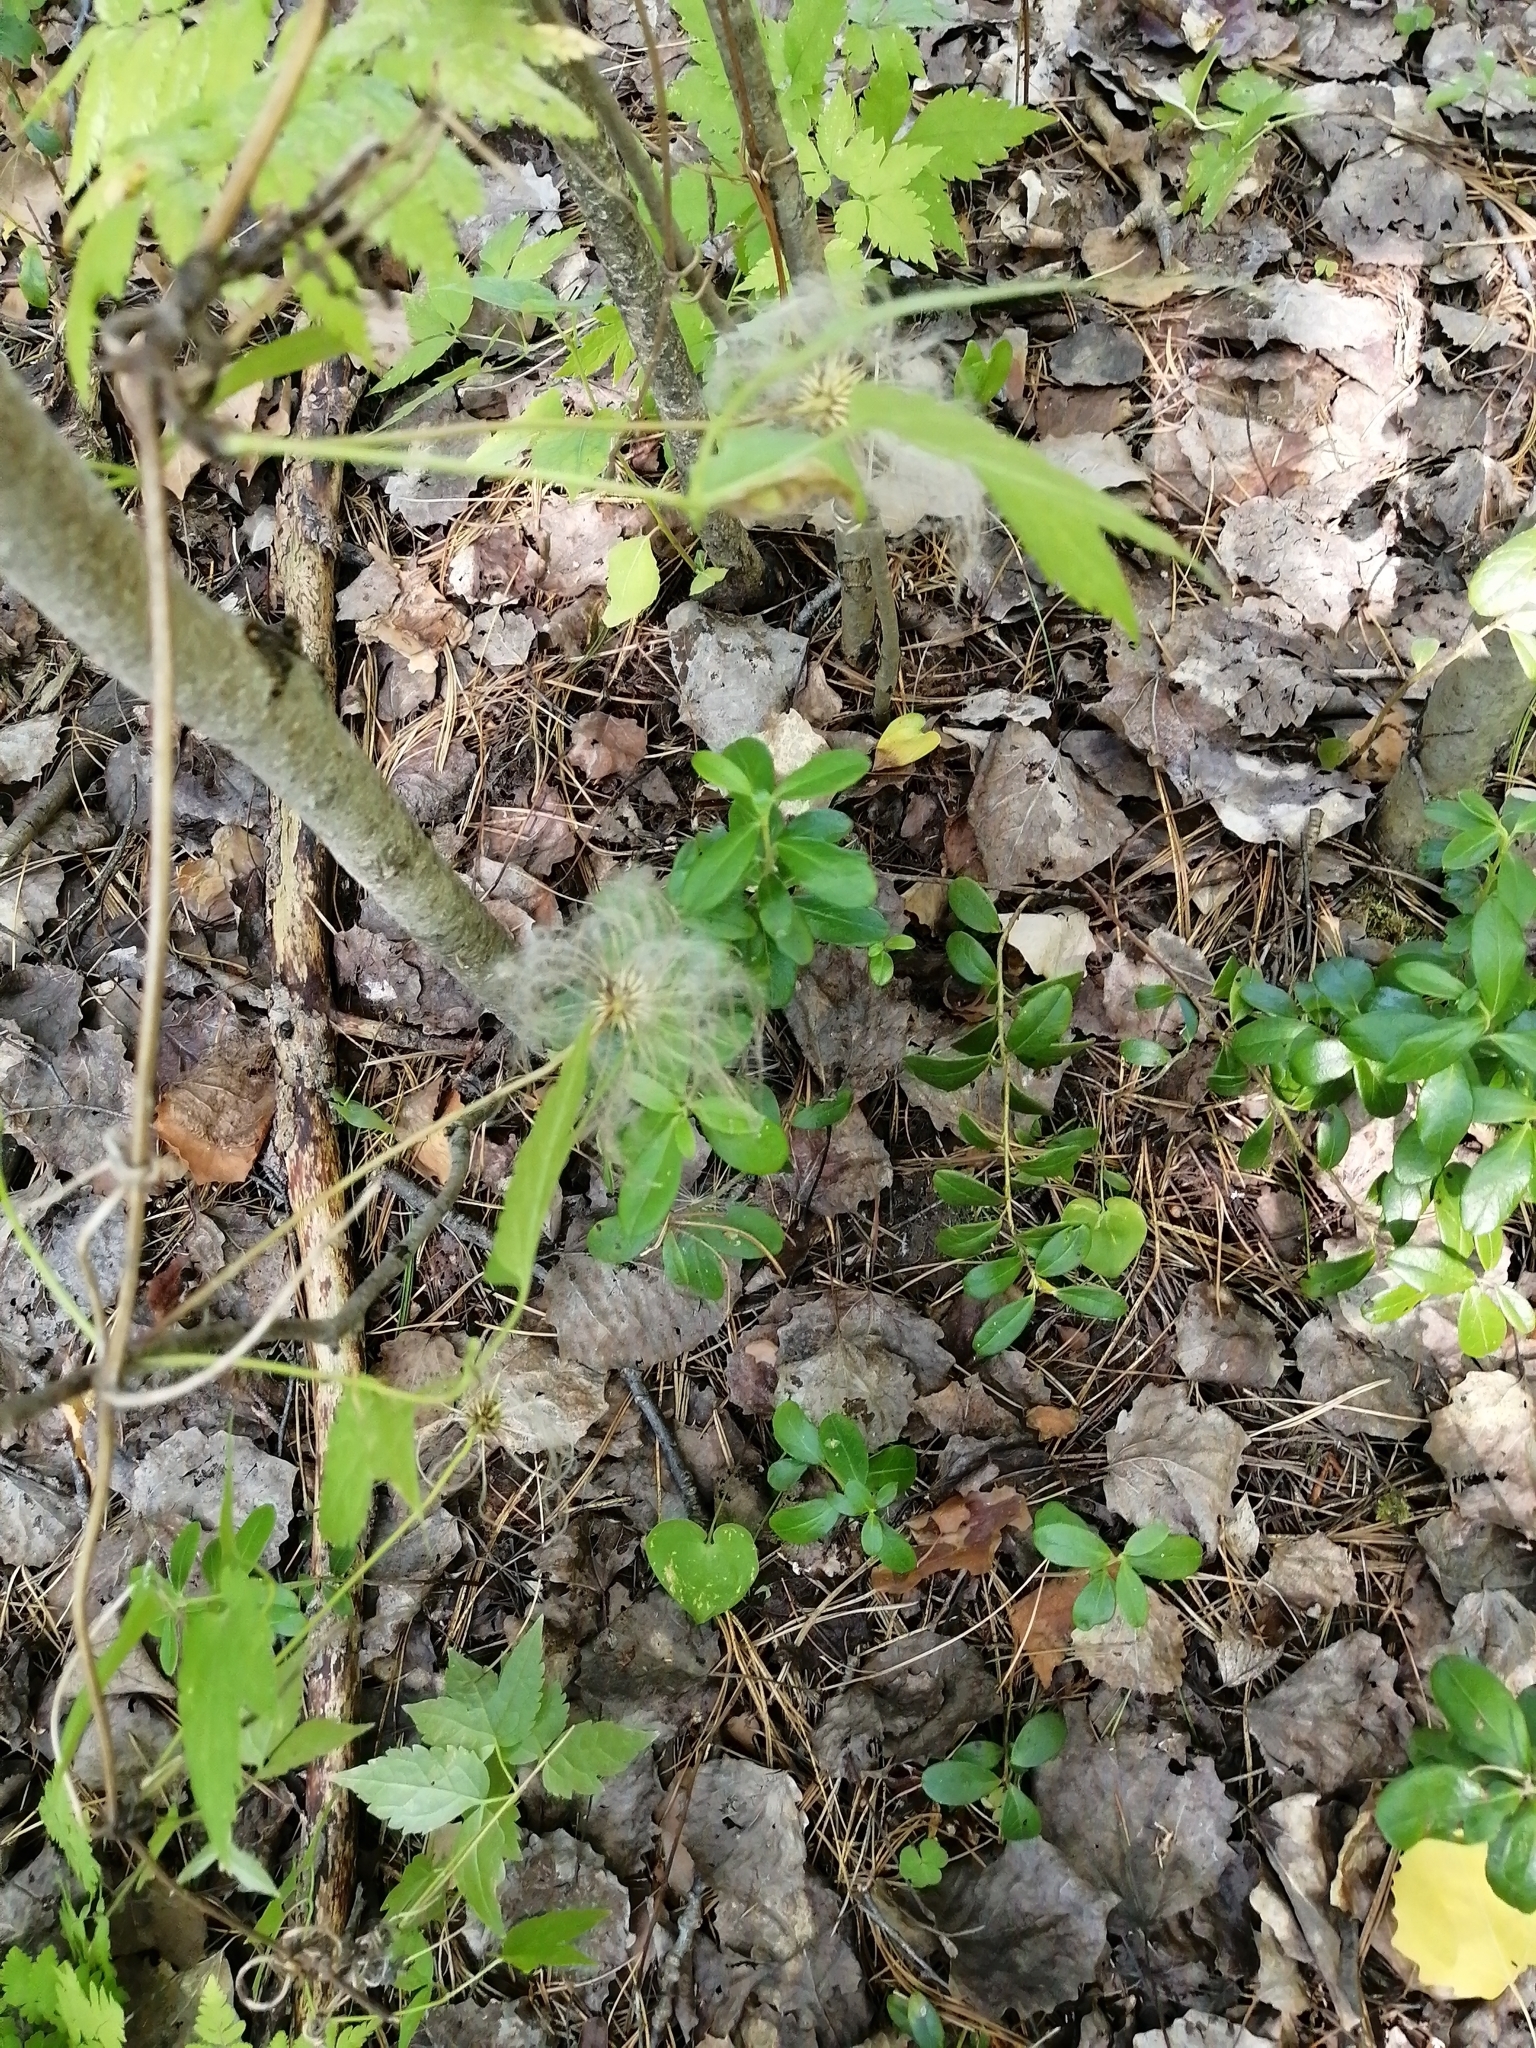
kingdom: Plantae
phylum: Tracheophyta
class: Magnoliopsida
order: Ranunculales
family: Ranunculaceae
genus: Clematis
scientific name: Clematis sibirica
